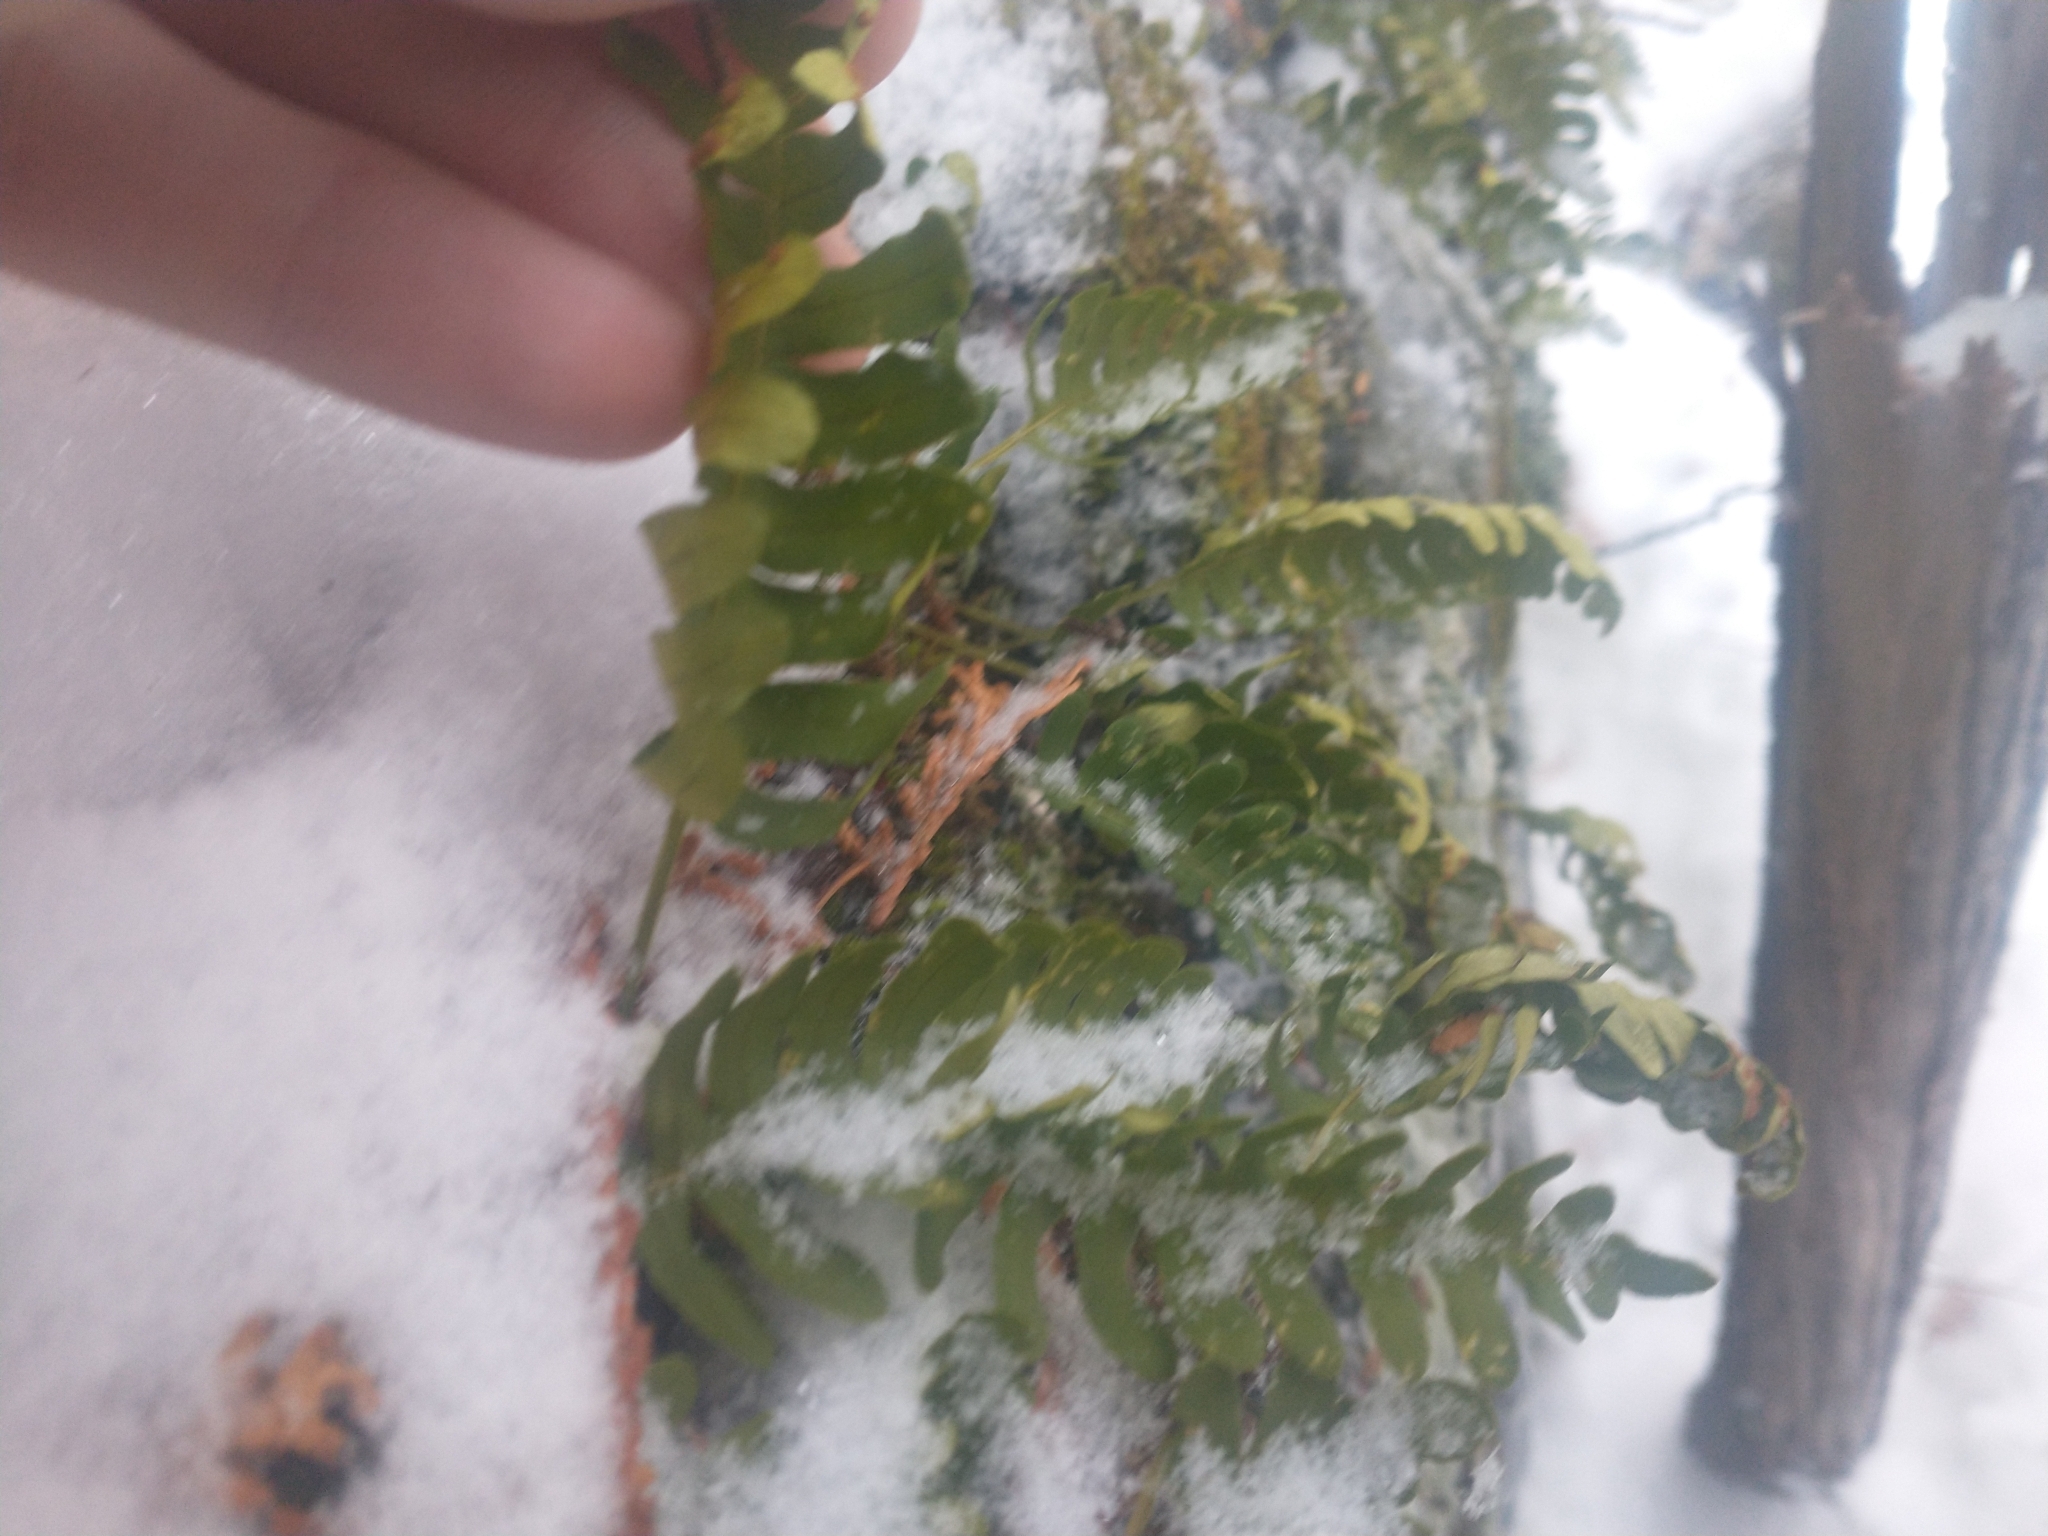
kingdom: Plantae
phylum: Tracheophyta
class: Polypodiopsida
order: Polypodiales
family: Polypodiaceae
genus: Polypodium
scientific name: Polypodium virginianum
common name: American wall fern
